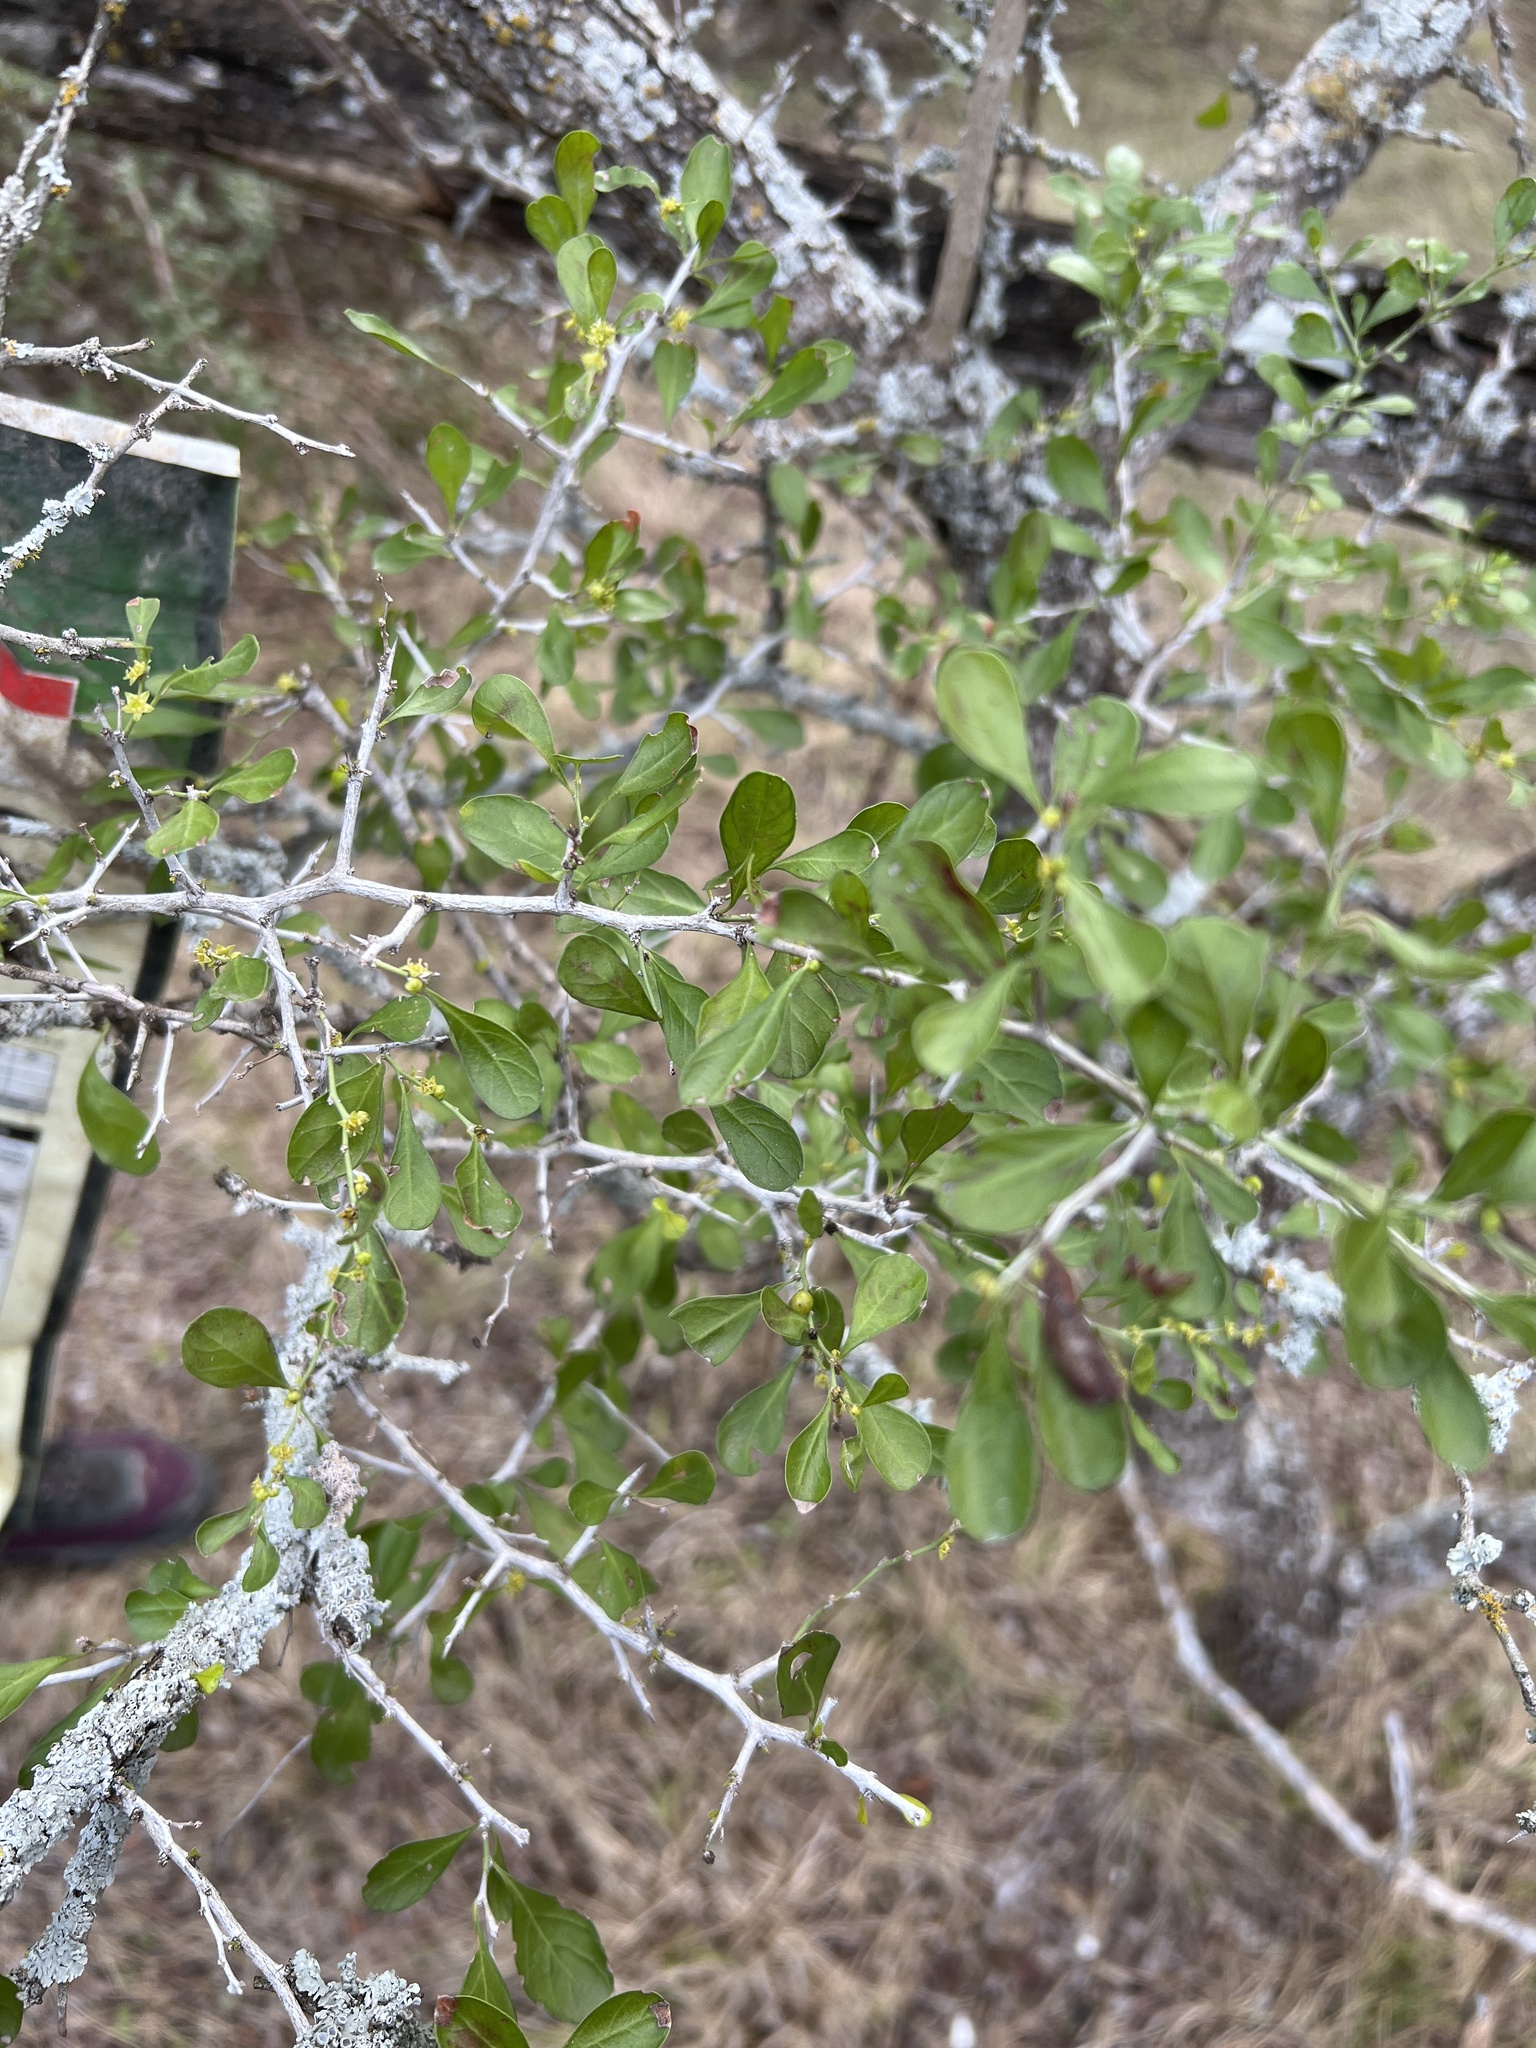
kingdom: Plantae
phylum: Tracheophyta
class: Magnoliopsida
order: Rosales
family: Rhamnaceae
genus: Condalia
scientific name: Condalia hookeri
